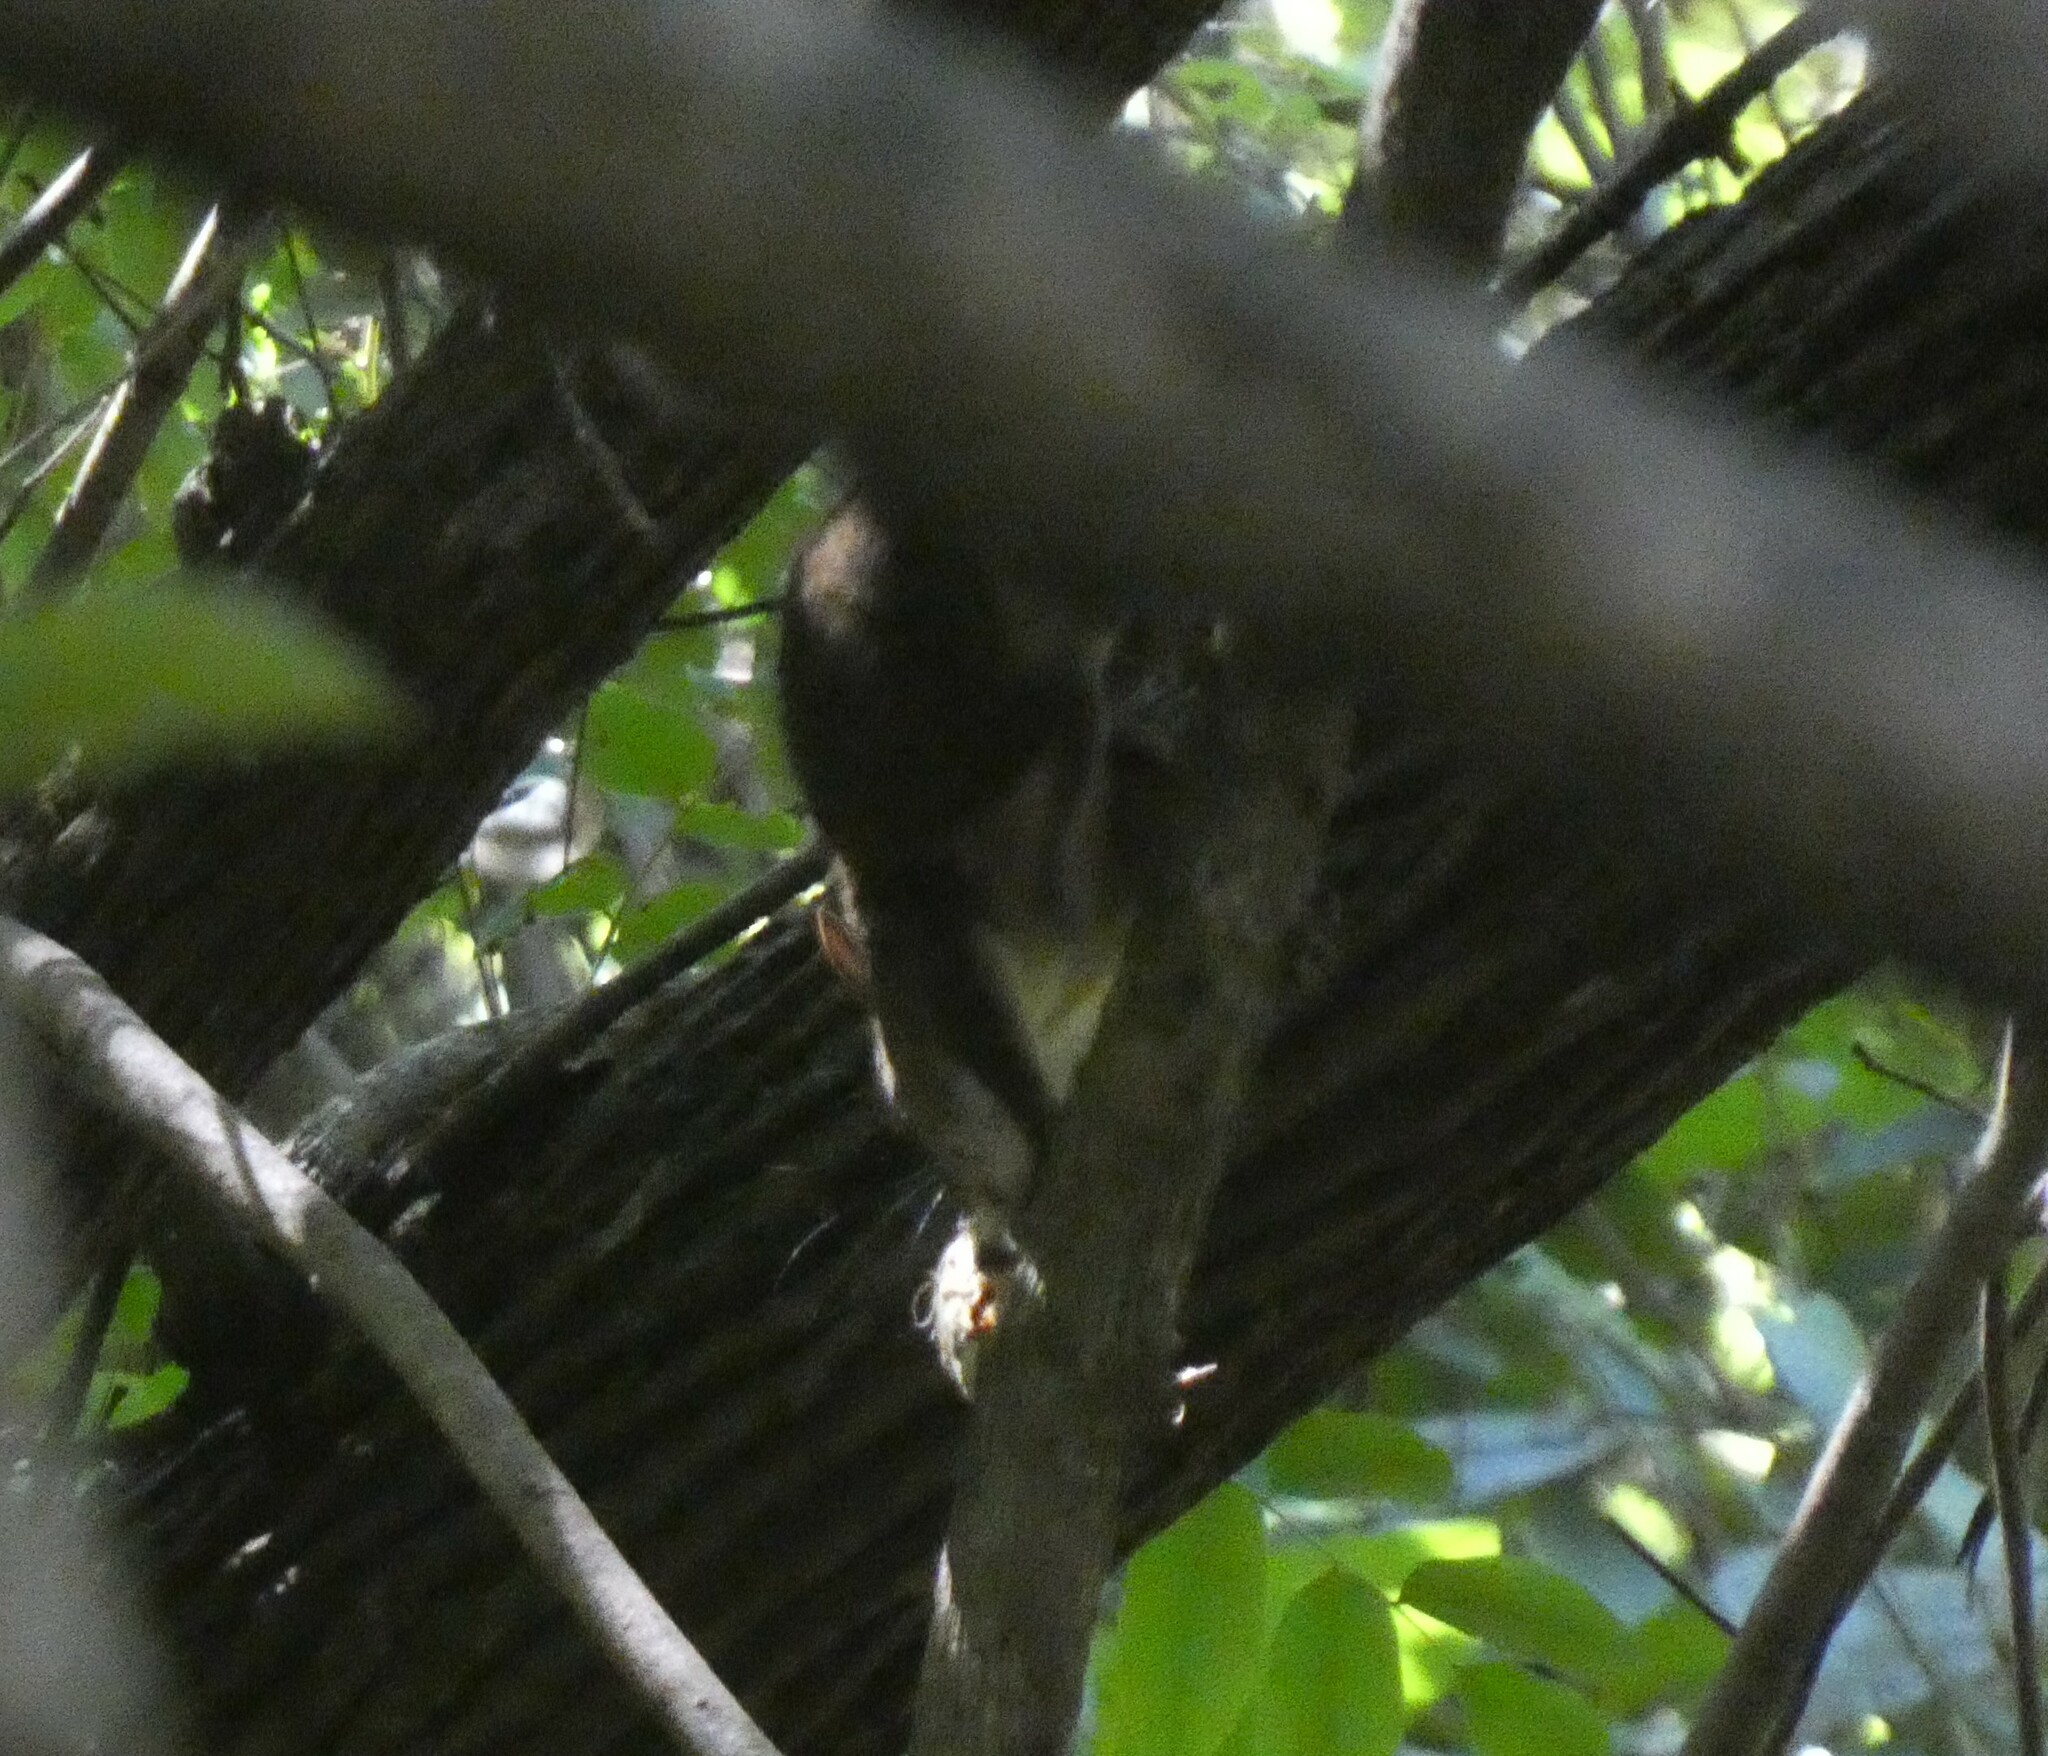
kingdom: Animalia
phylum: Chordata
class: Mammalia
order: Rodentia
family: Sciuridae
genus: Sciurus
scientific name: Sciurus aestuans
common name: Guianan squirrel
